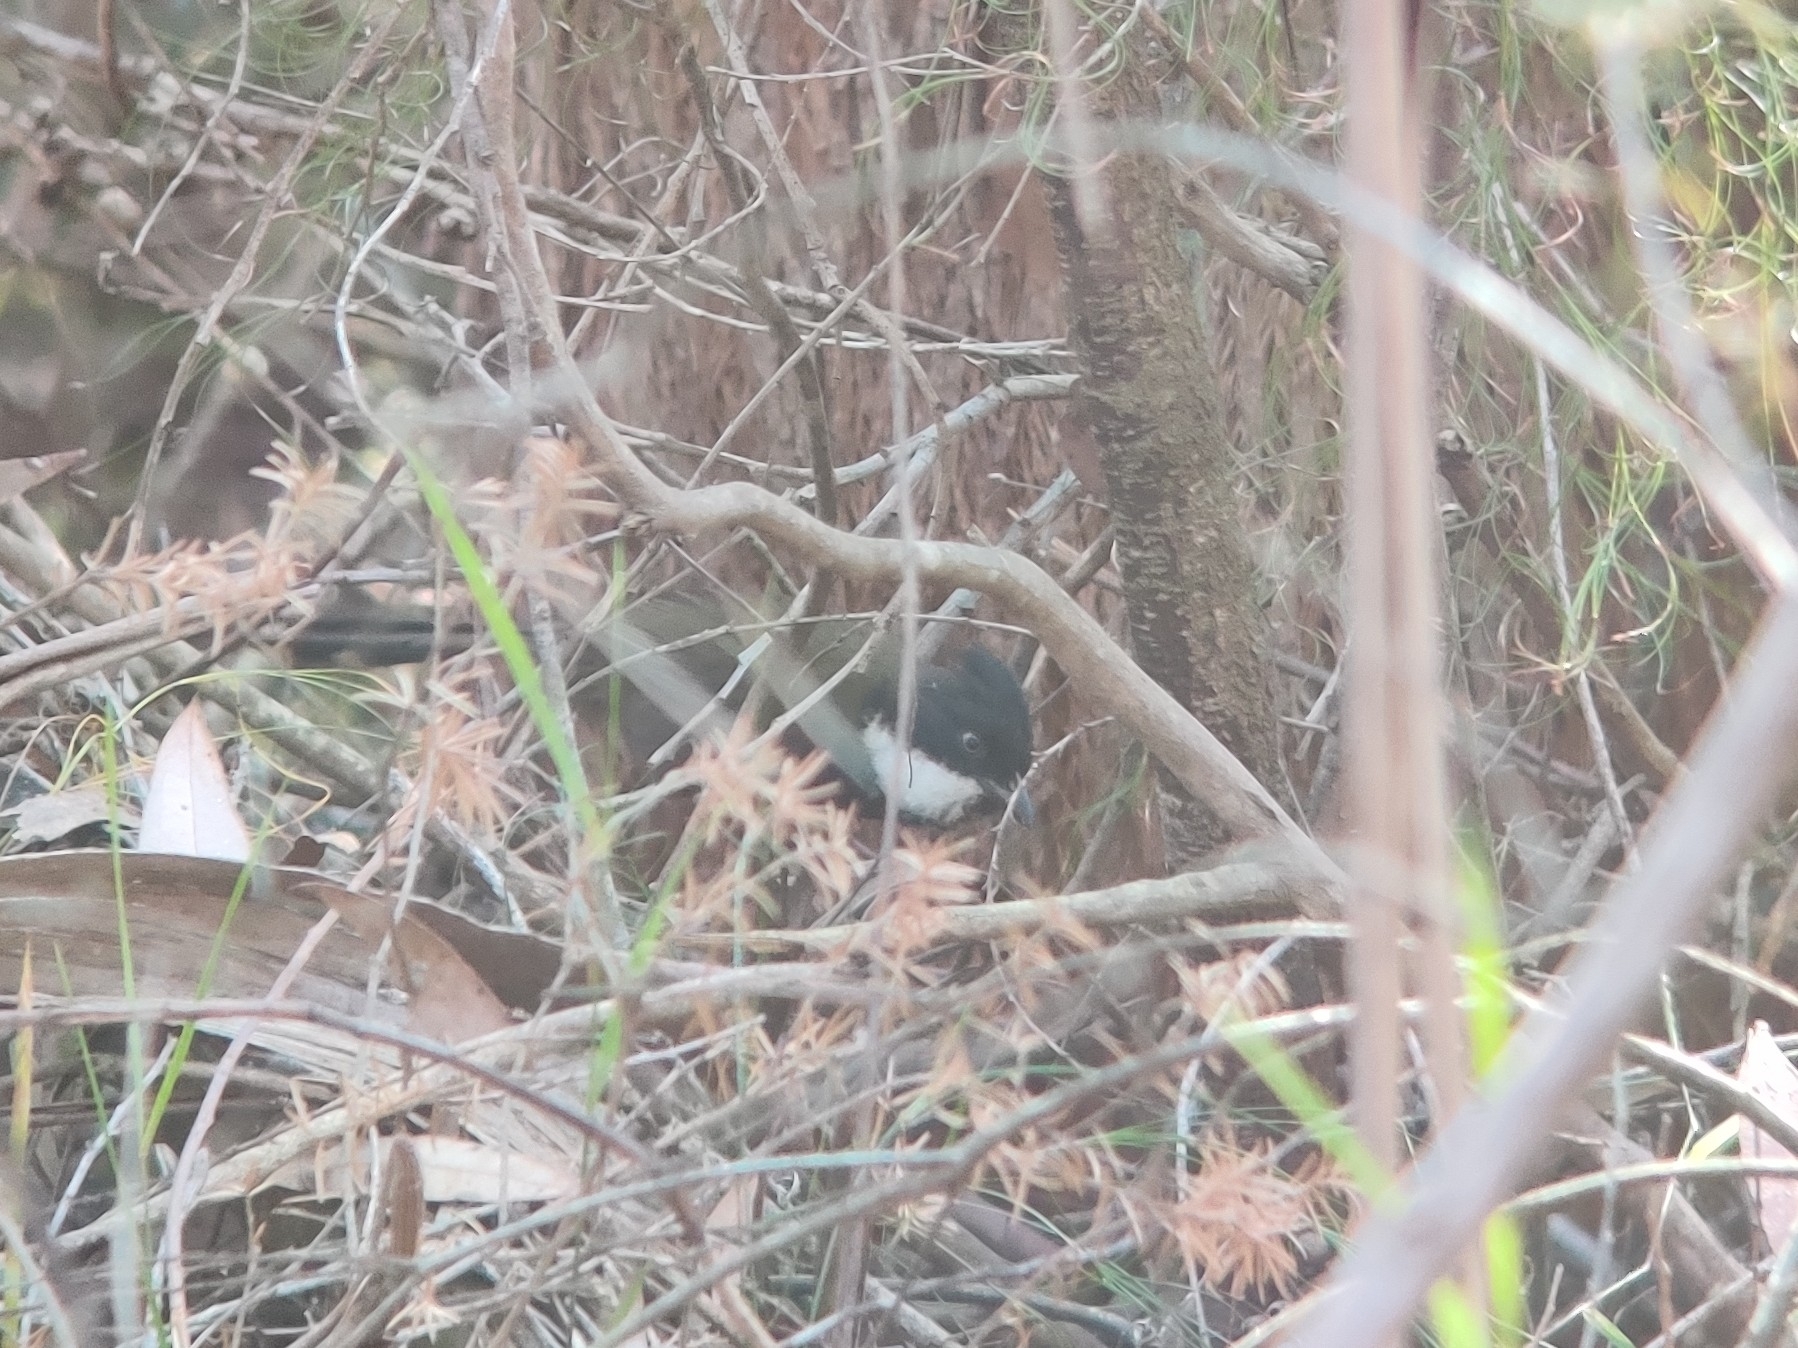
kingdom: Animalia
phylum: Chordata
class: Aves
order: Passeriformes
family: Psophodidae
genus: Psophodes
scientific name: Psophodes olivaceus
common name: Eastern whipbird
